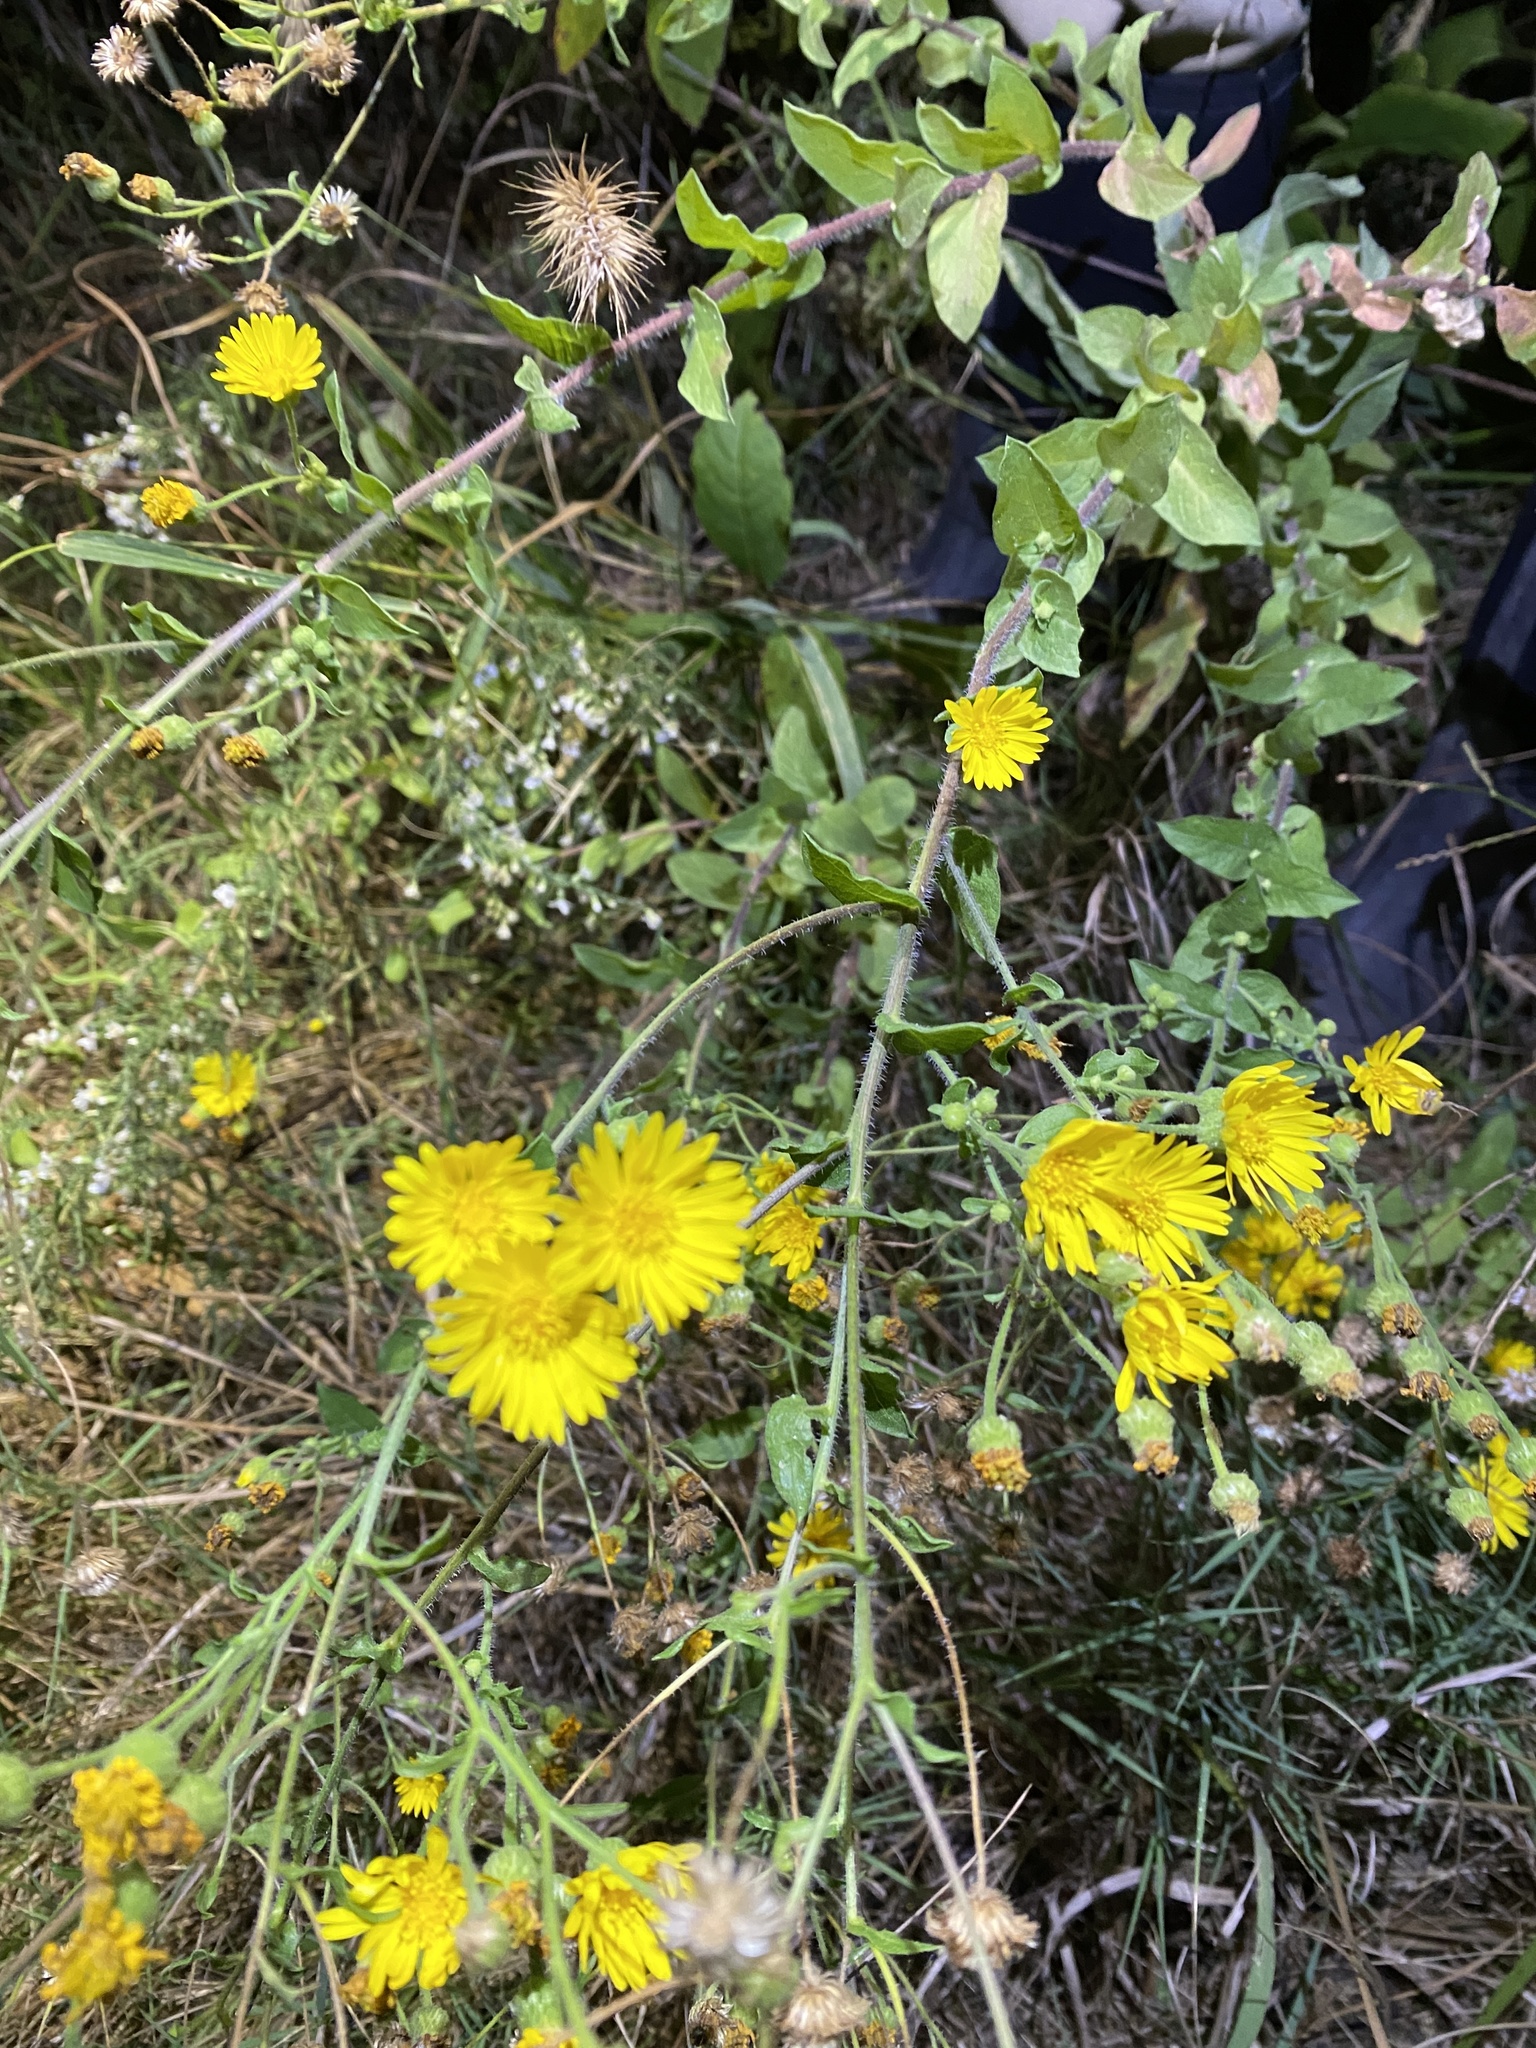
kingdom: Plantae
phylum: Tracheophyta
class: Magnoliopsida
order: Asterales
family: Asteraceae
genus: Heterotheca
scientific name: Heterotheca subaxillaris
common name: Camphorweed
